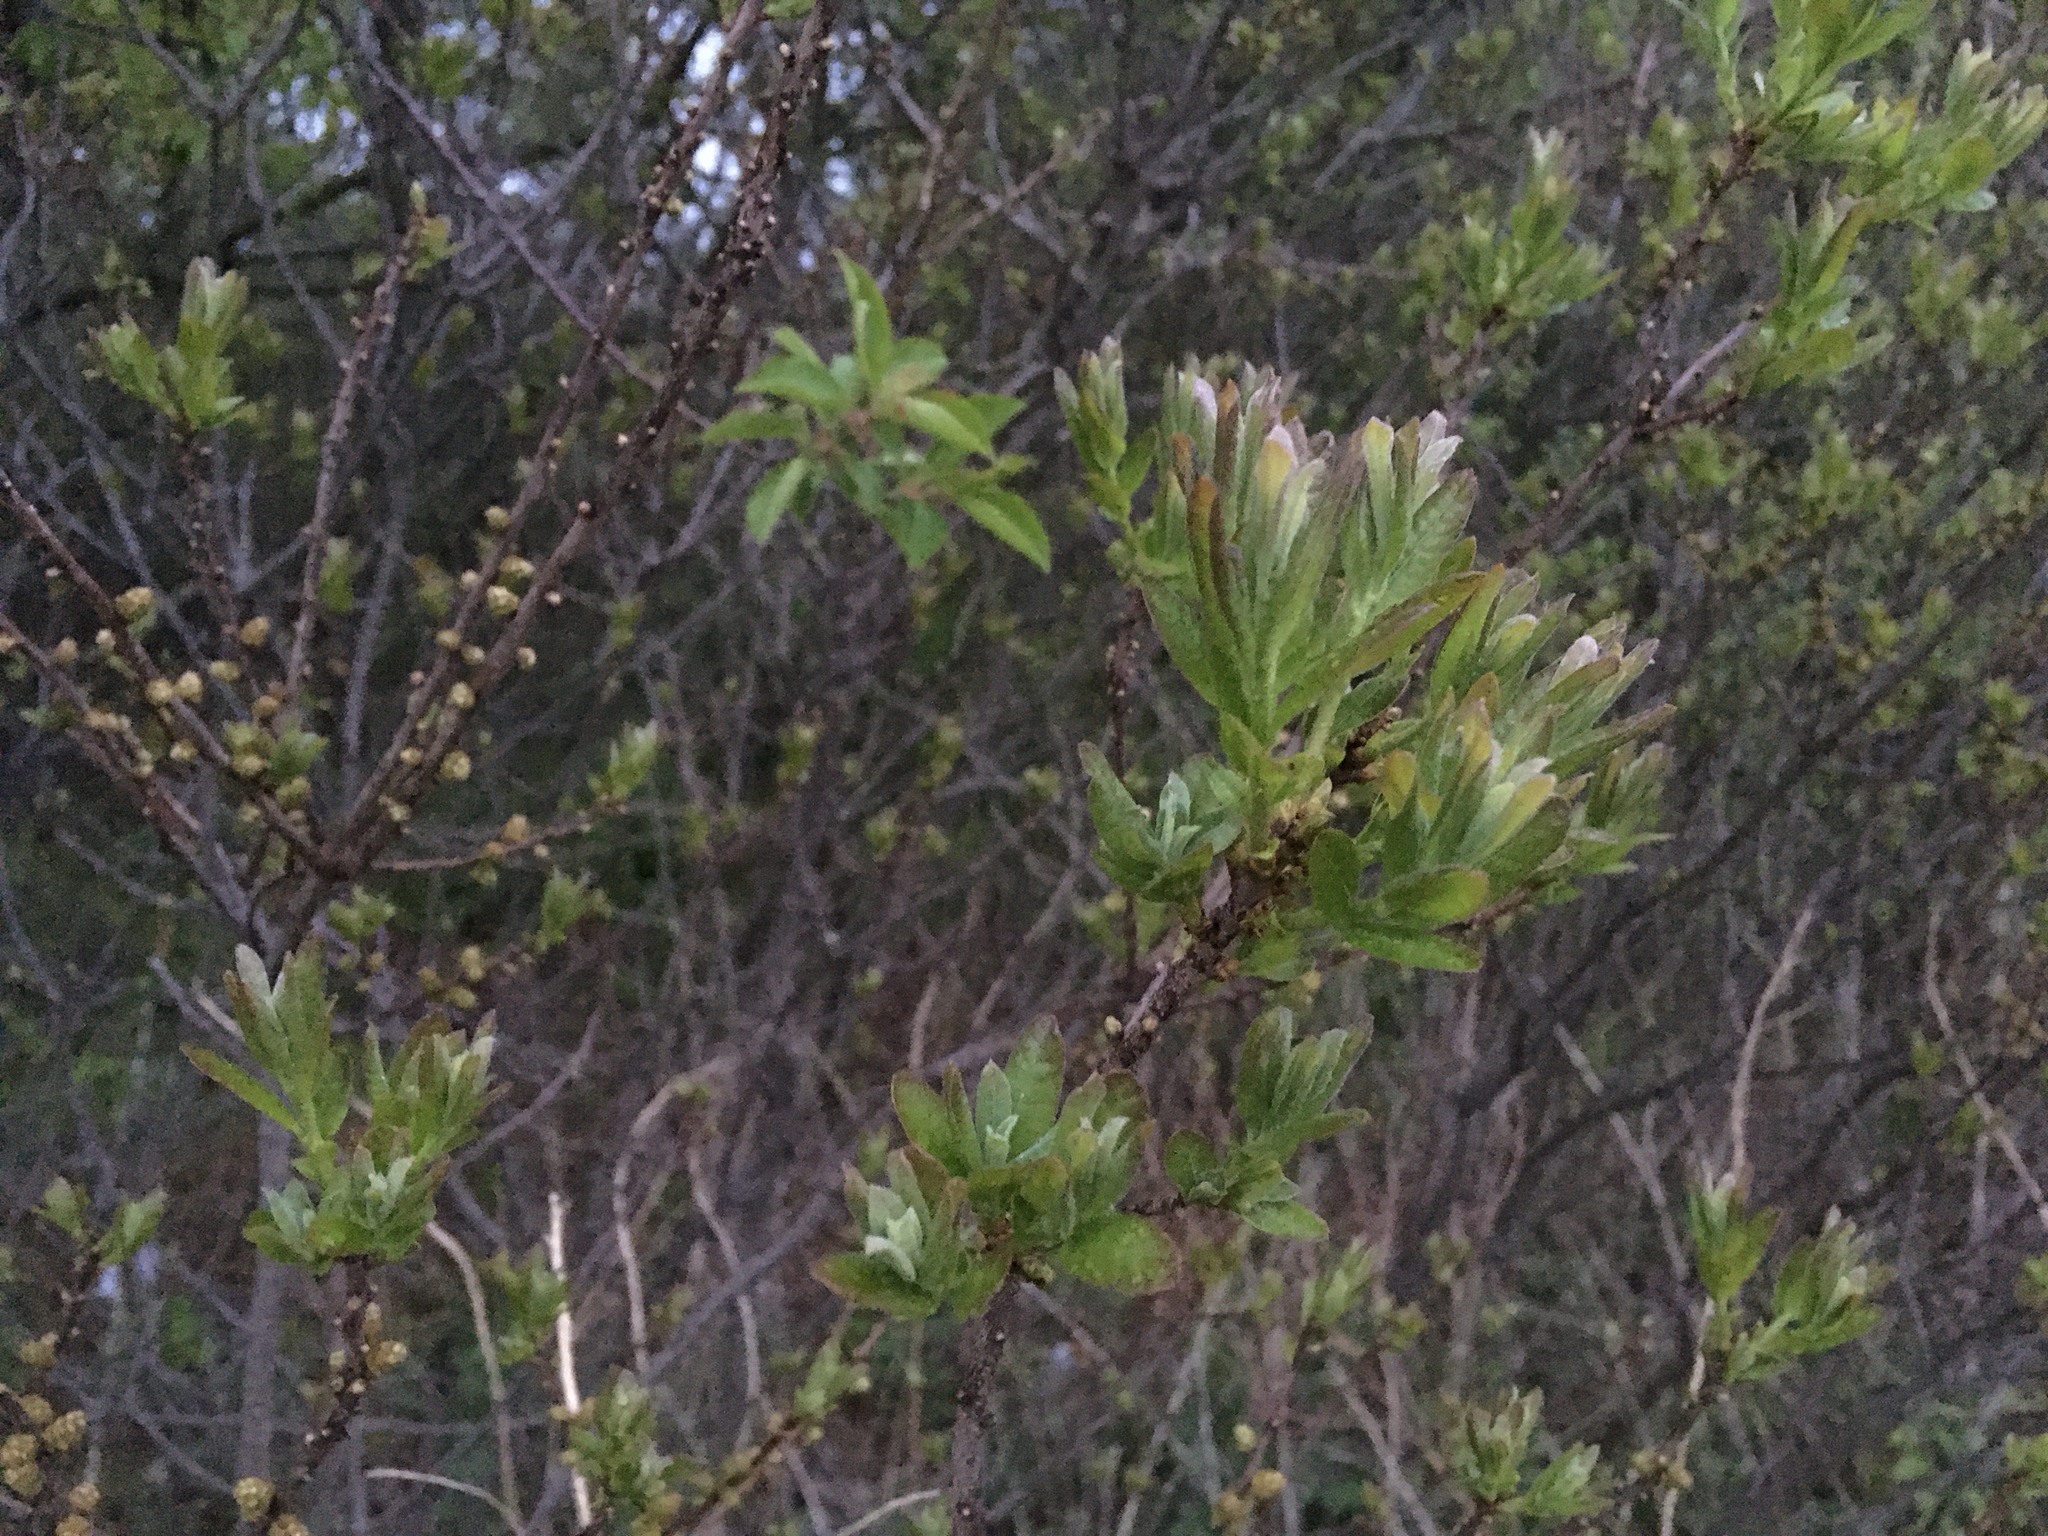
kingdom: Plantae
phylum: Tracheophyta
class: Magnoliopsida
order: Fagales
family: Myricaceae
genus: Morella
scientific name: Morella pensylvanica
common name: Northern bayberry
